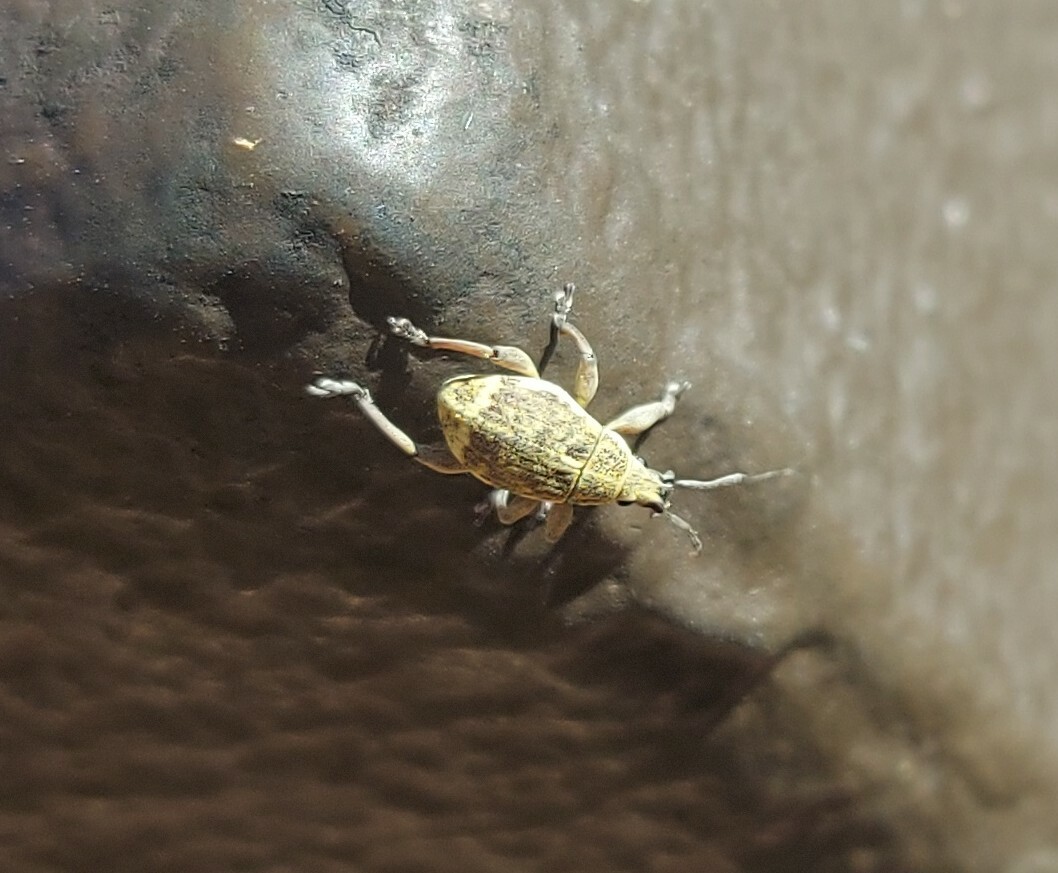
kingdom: Animalia
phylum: Arthropoda
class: Insecta
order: Coleoptera
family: Curculionidae
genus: Sciobius
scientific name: Sciobius pullus
